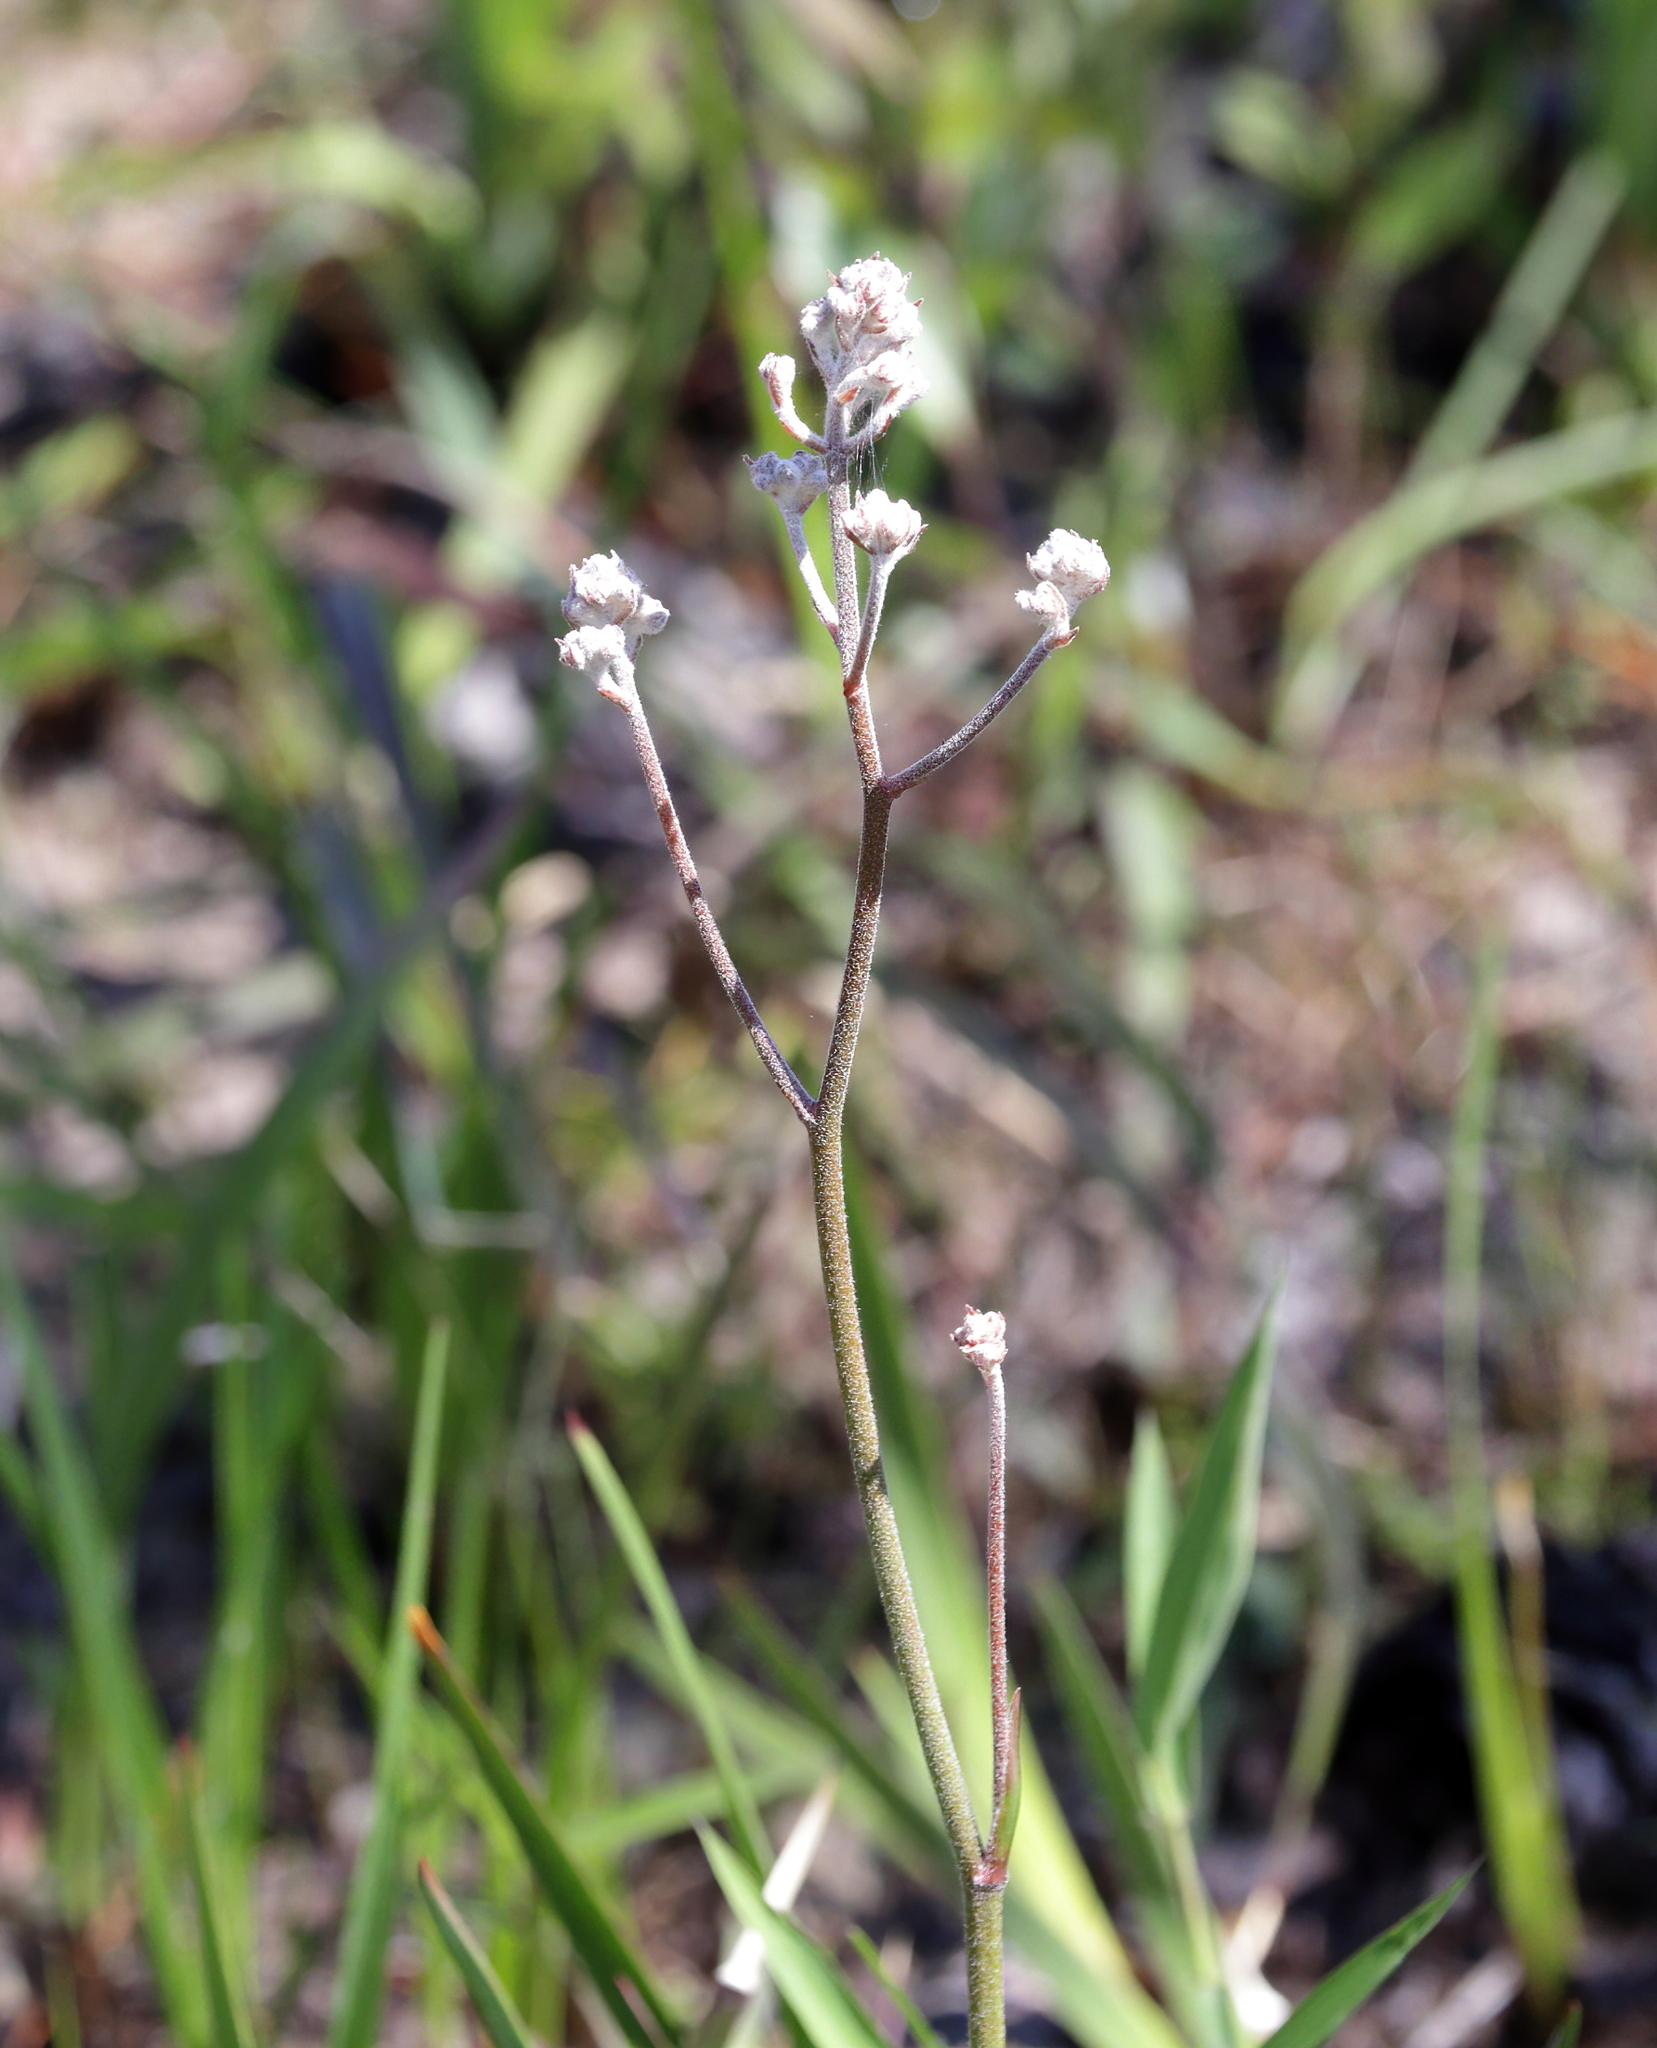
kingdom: Plantae
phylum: Tracheophyta
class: Liliopsida
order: Dioscoreales
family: Nartheciaceae
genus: Lophiola
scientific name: Lophiola aurea
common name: Golden-crest
